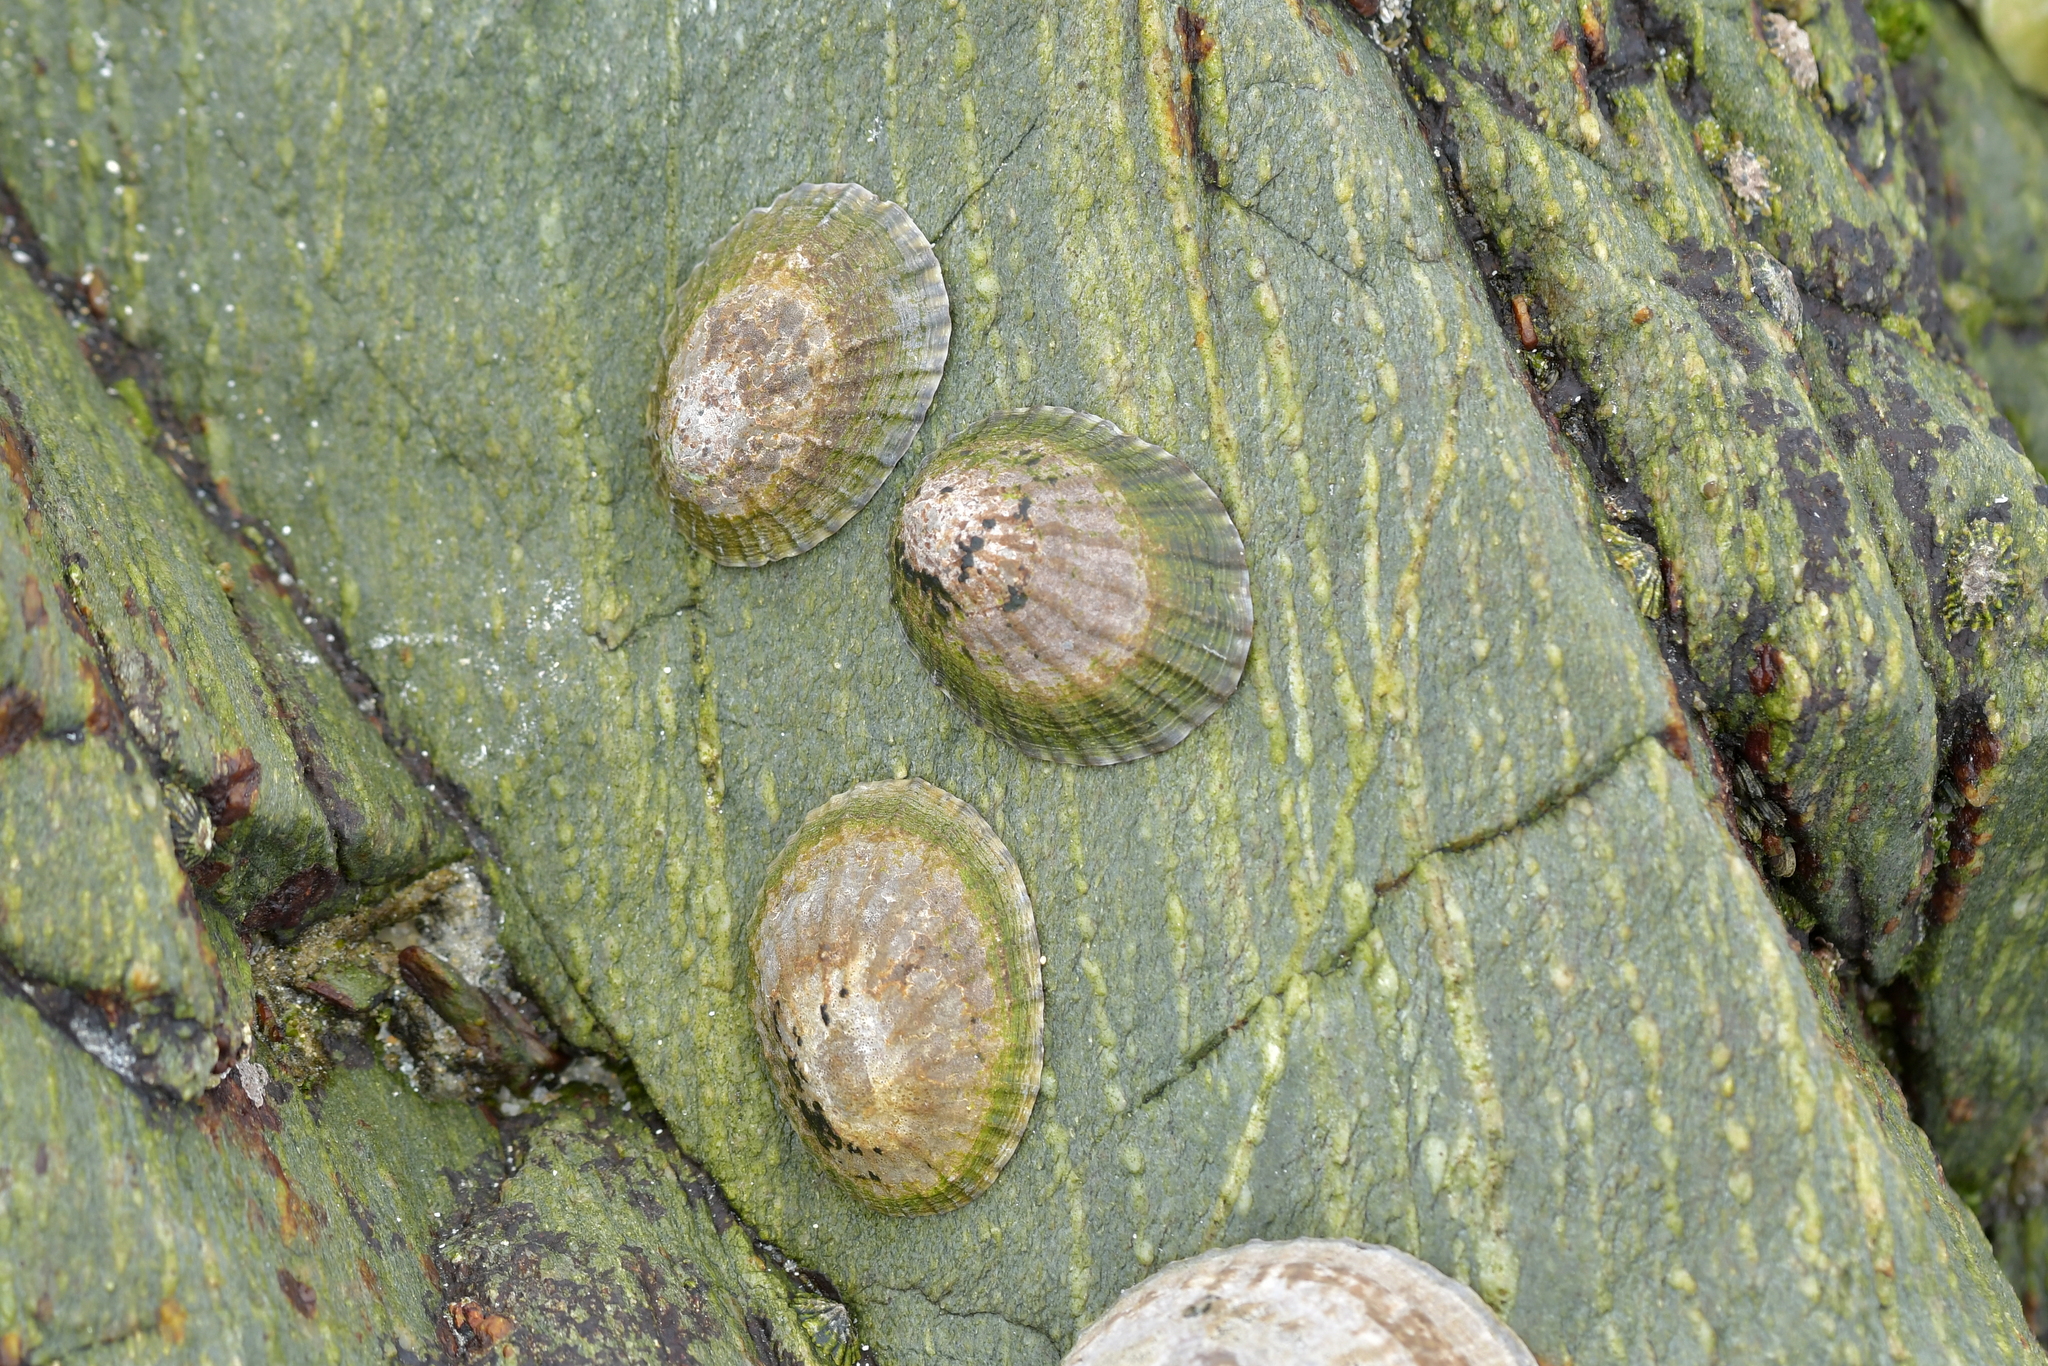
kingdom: Animalia
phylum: Mollusca
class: Gastropoda
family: Nacellidae
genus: Cellana
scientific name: Cellana oliveri
